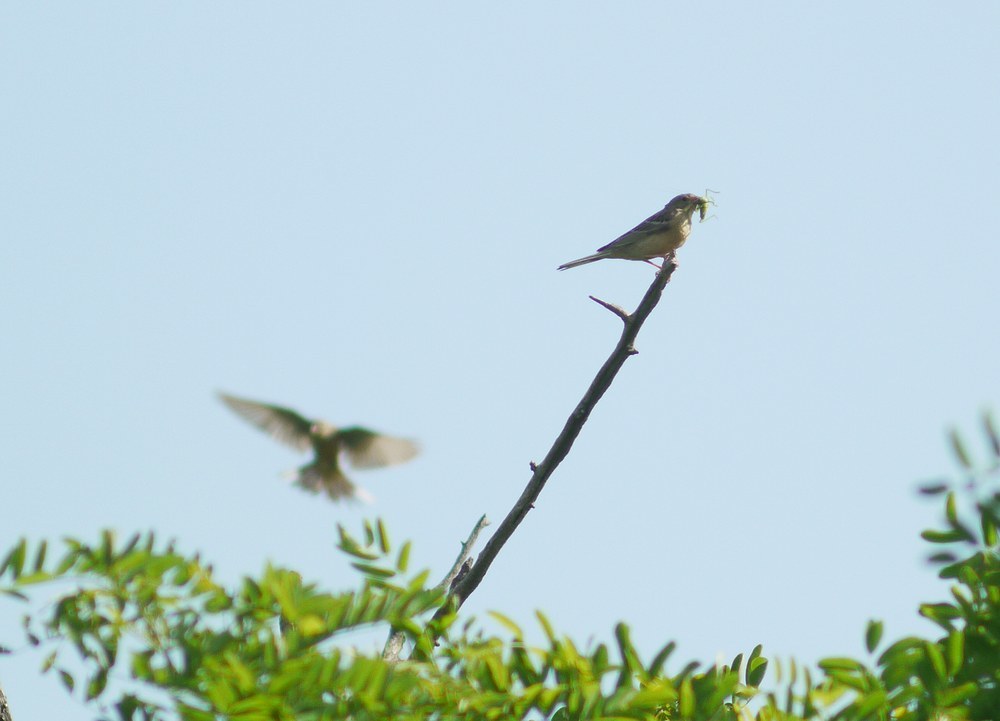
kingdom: Animalia
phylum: Chordata
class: Aves
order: Passeriformes
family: Emberizidae
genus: Emberiza
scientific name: Emberiza hortulana
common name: Ortolan bunting
